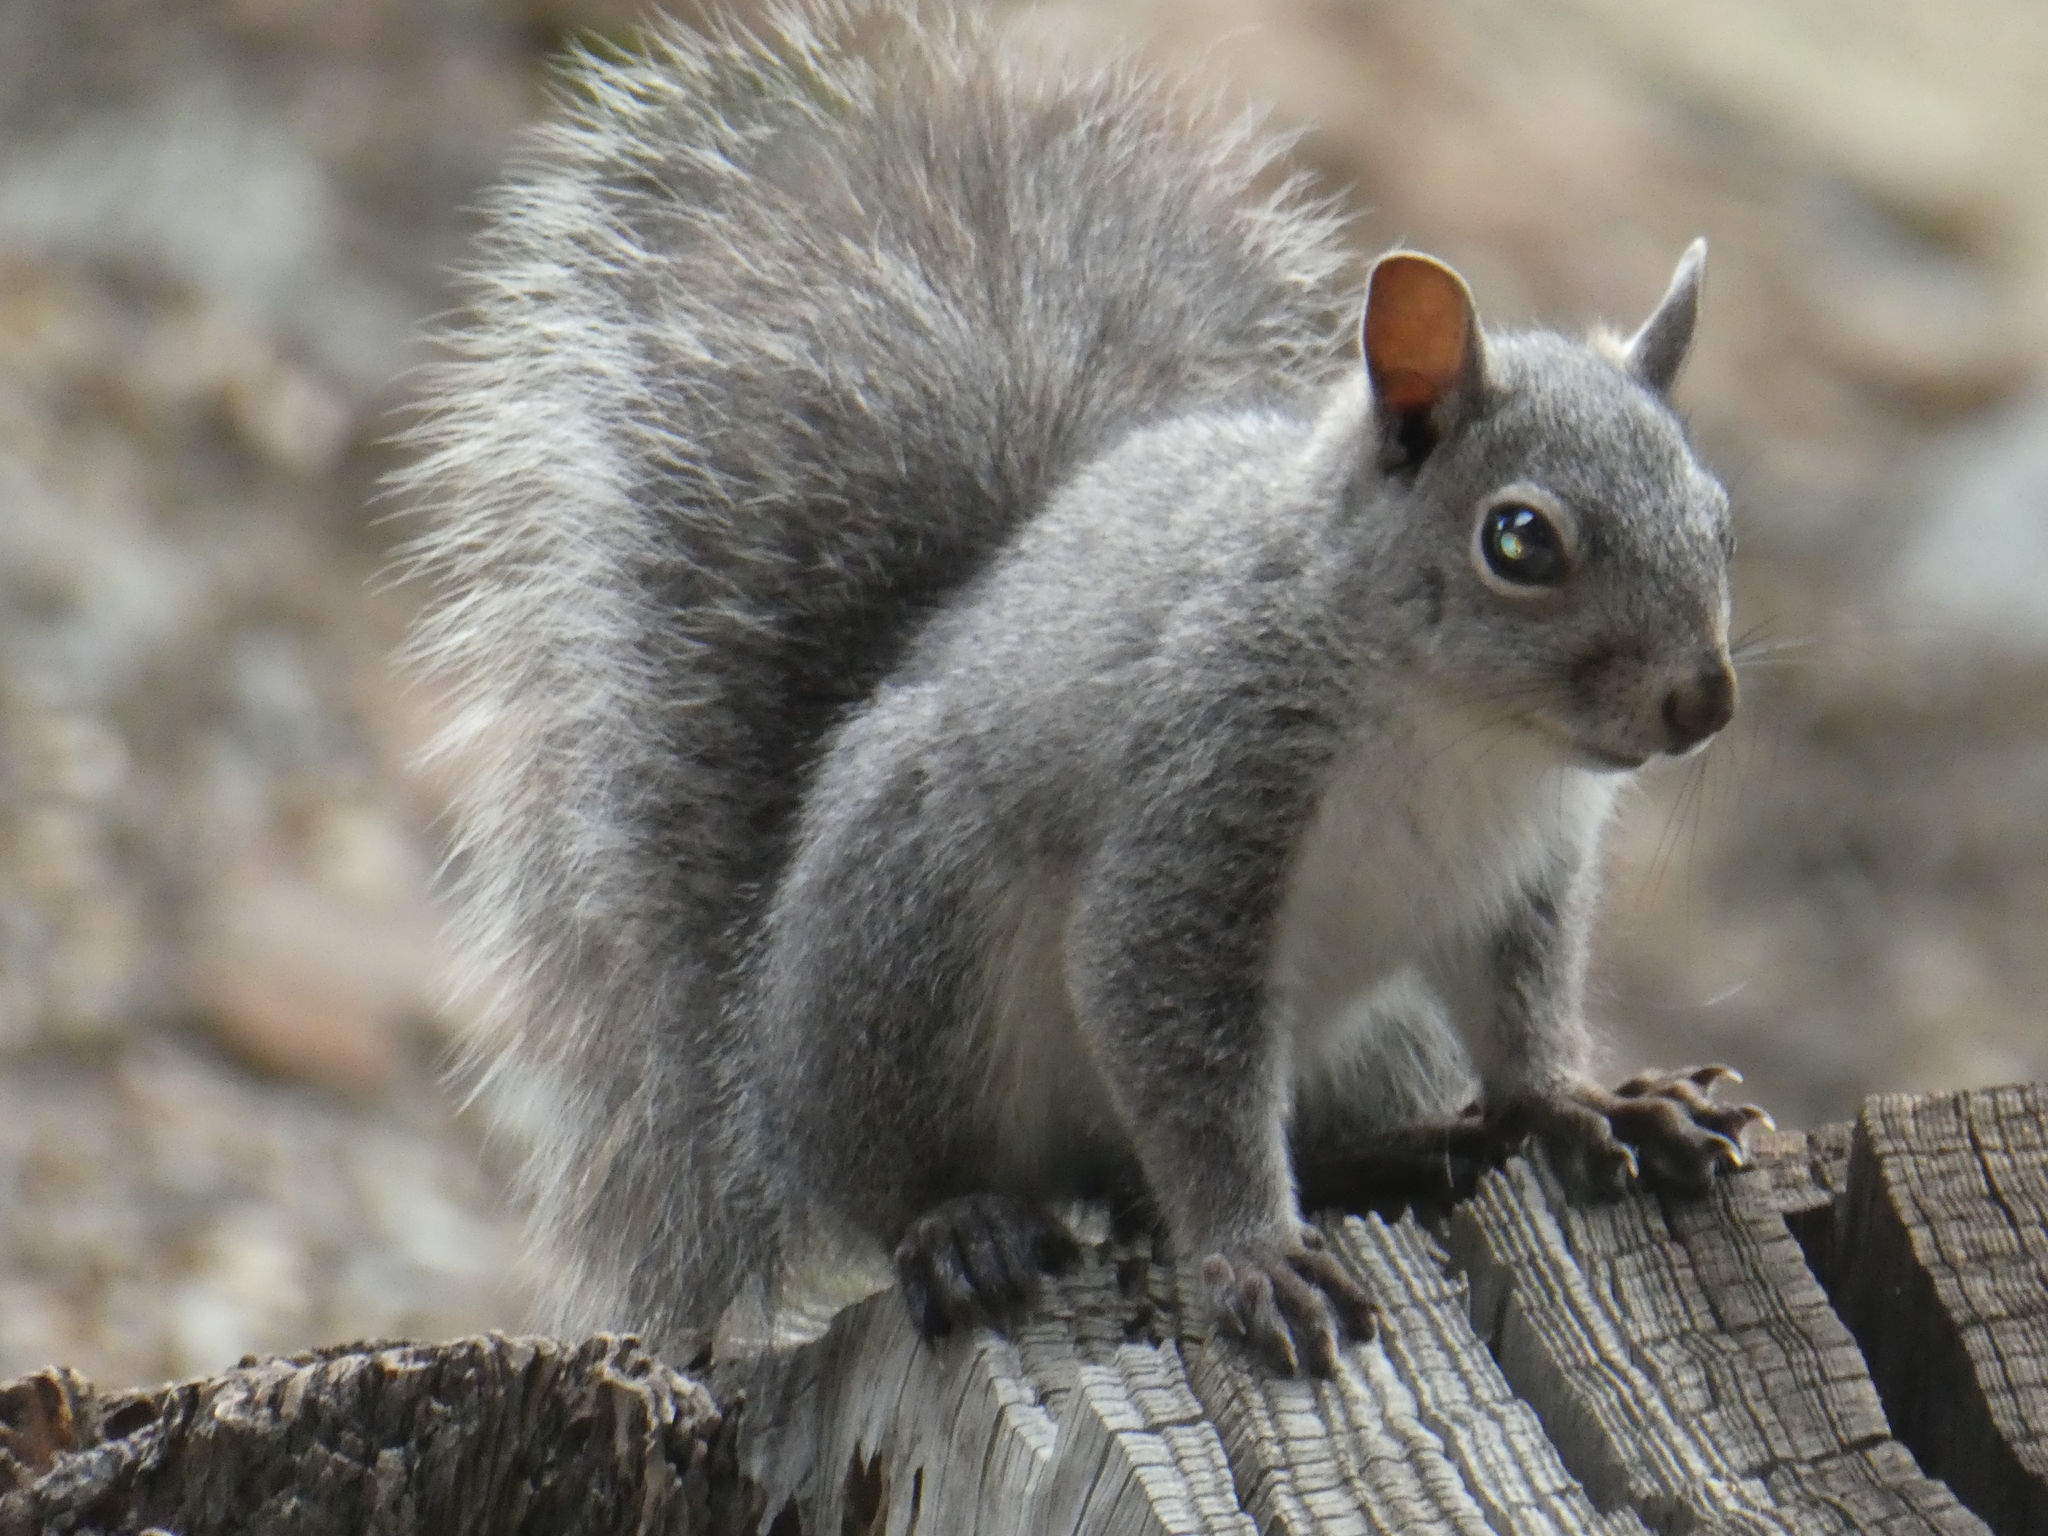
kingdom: Animalia
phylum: Chordata
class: Mammalia
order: Rodentia
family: Sciuridae
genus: Sciurus
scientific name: Sciurus griseus
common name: Western gray squirrel
